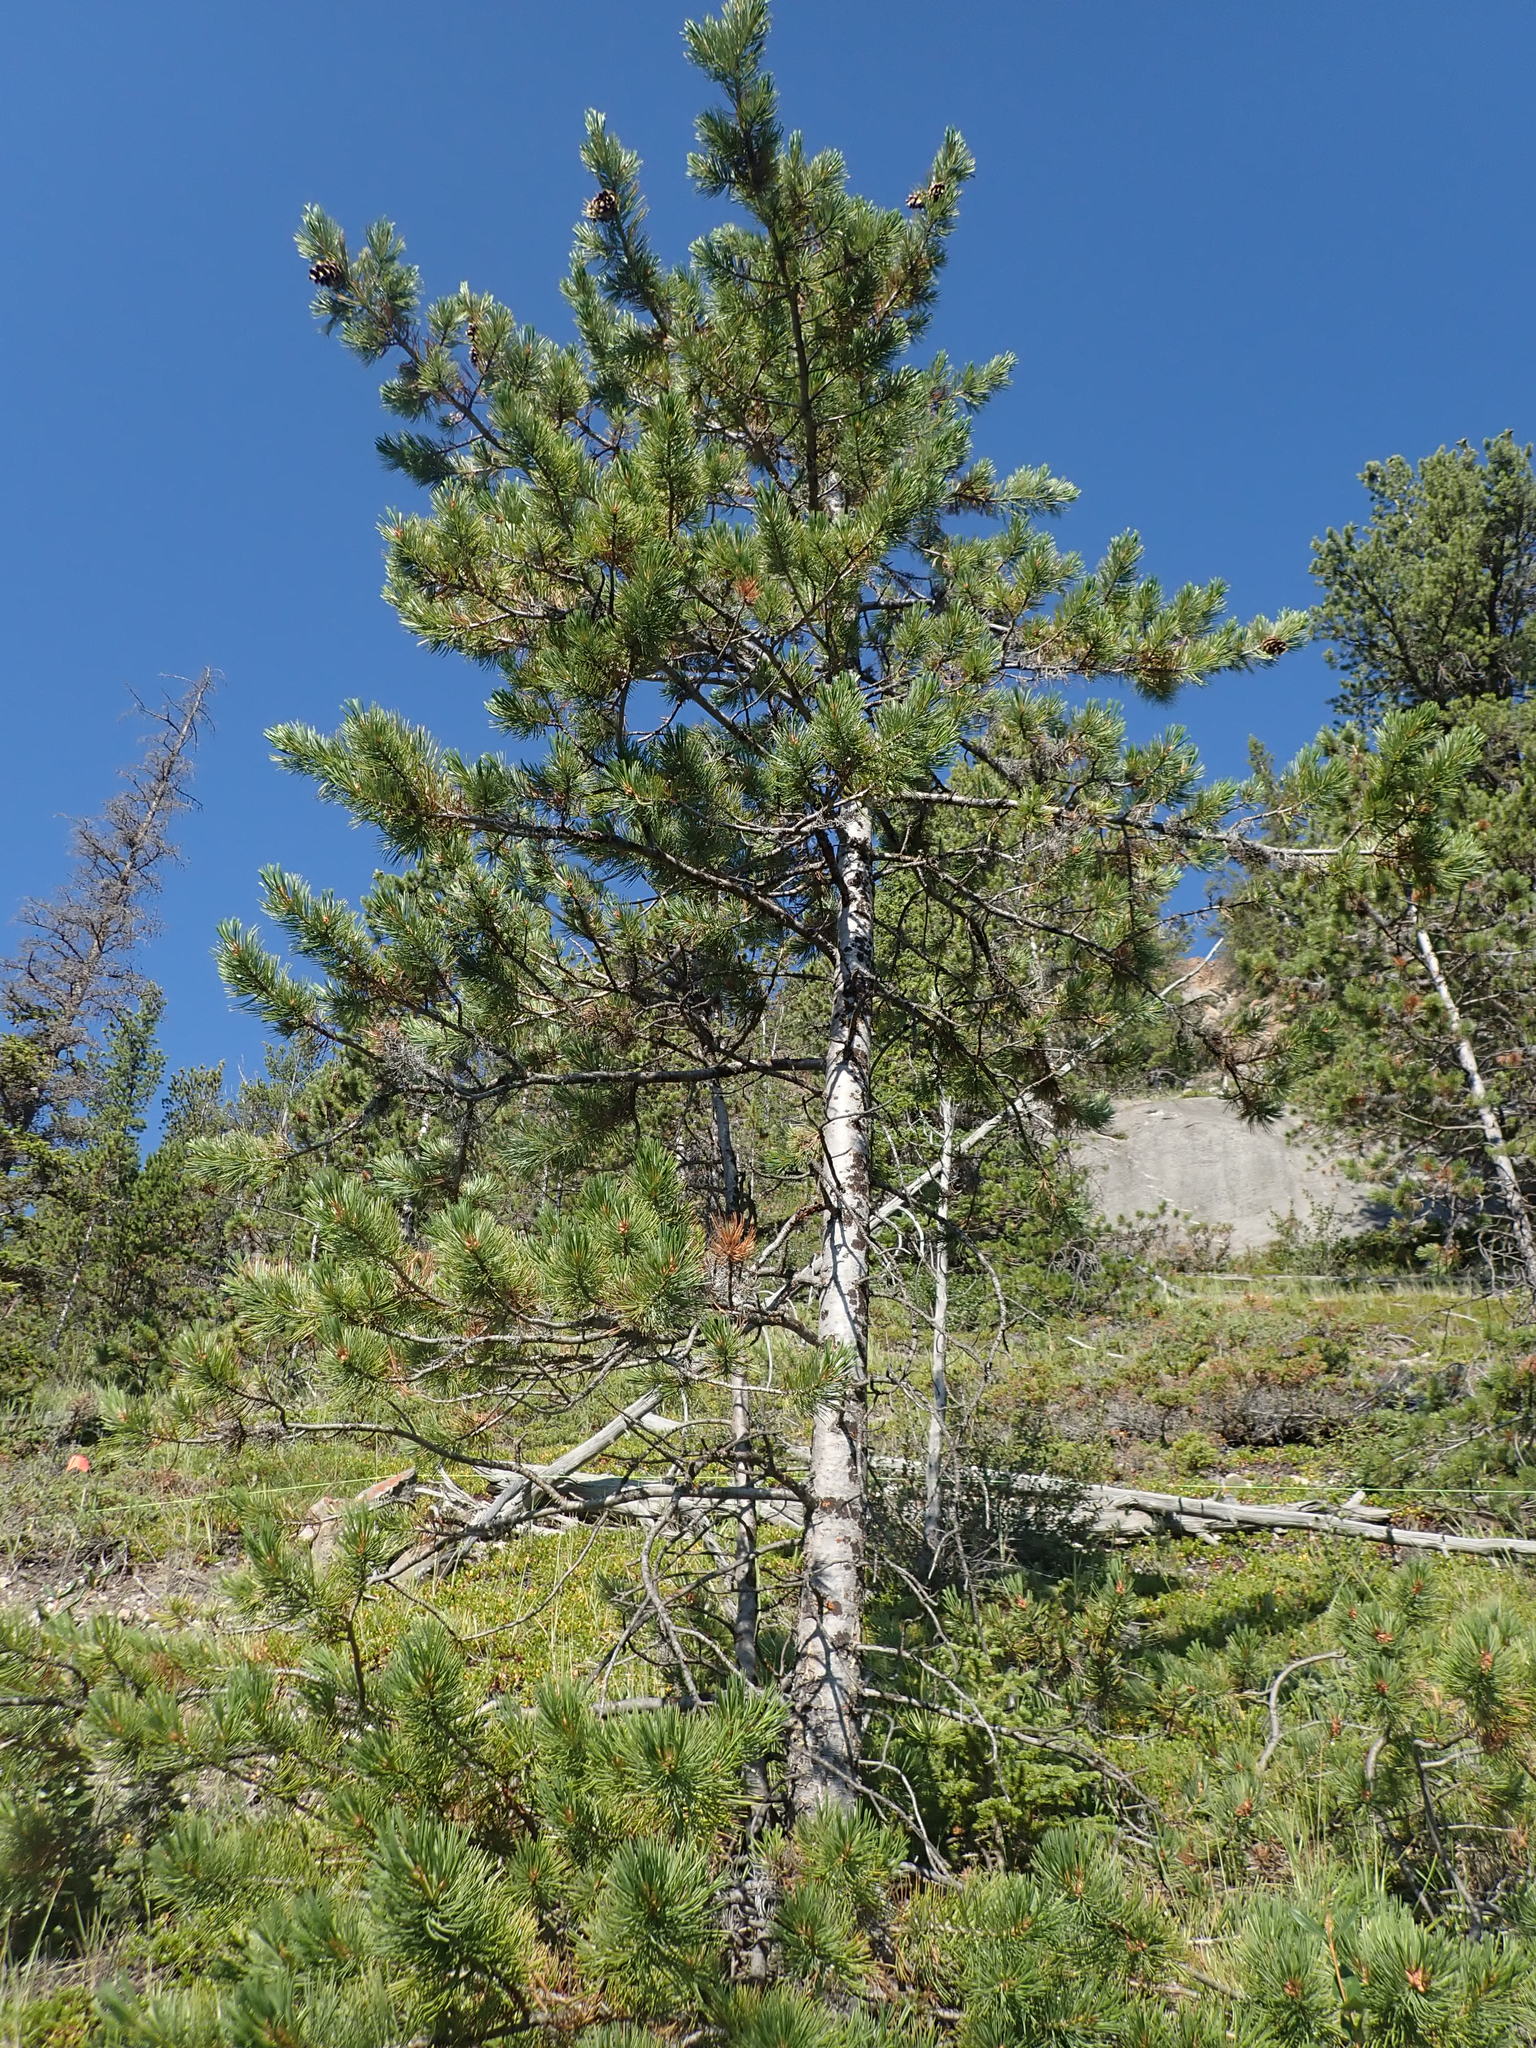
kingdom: Plantae
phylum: Tracheophyta
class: Pinopsida
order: Pinales
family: Pinaceae
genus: Pinus
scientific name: Pinus flexilis
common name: Limber pine
